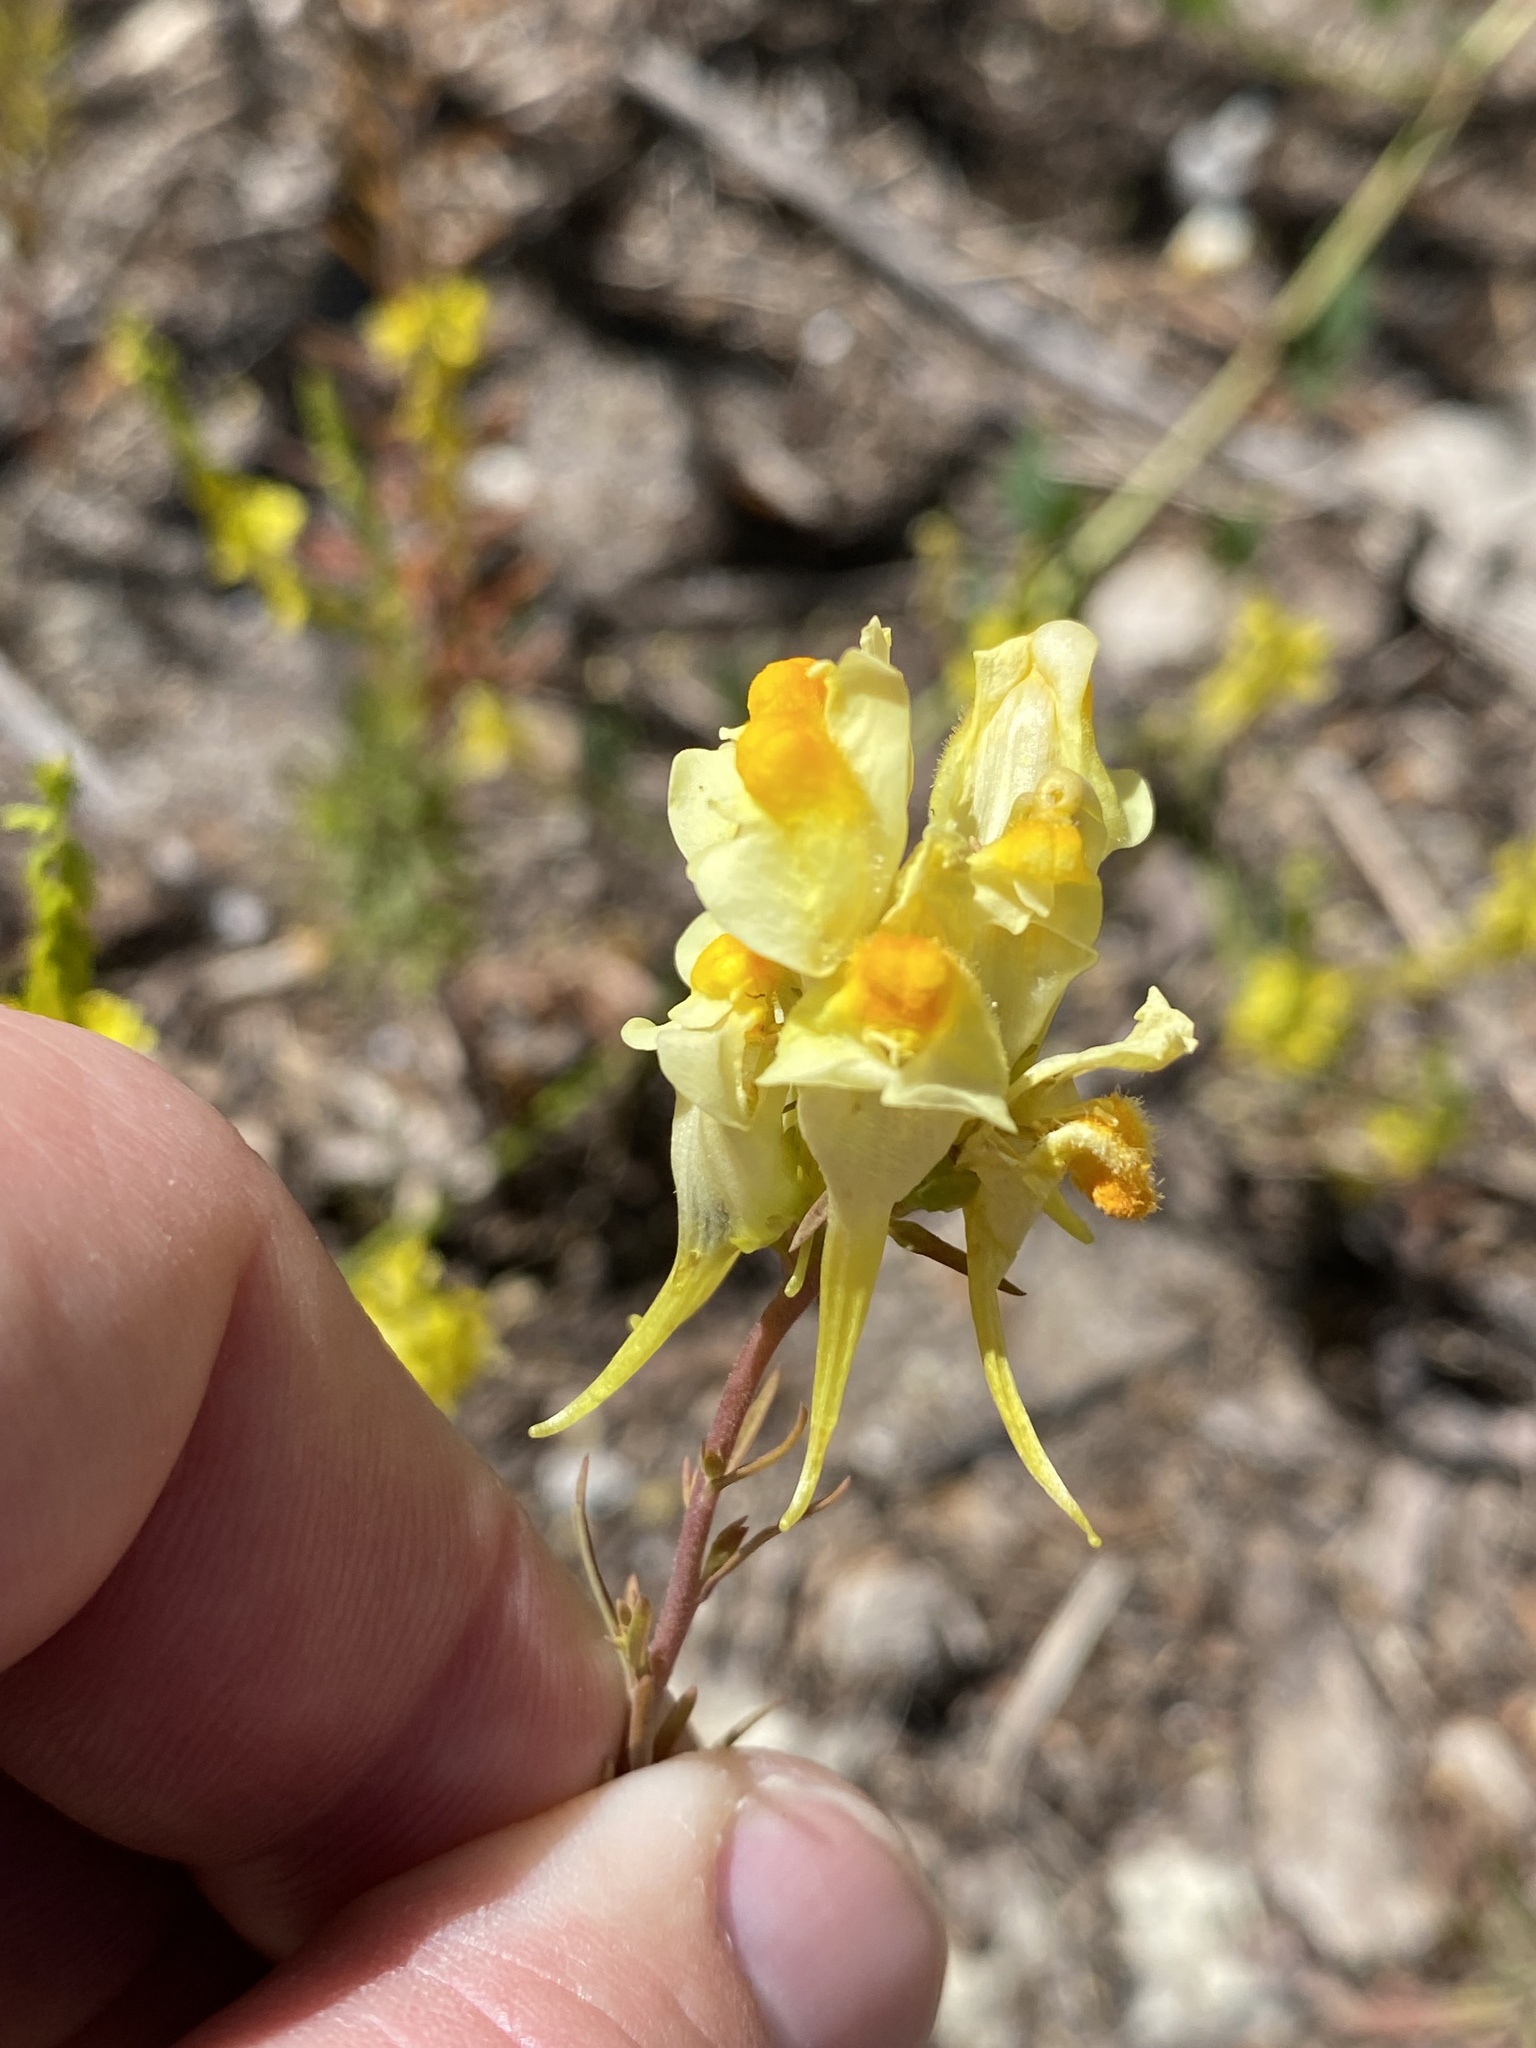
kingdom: Plantae
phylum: Tracheophyta
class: Magnoliopsida
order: Lamiales
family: Plantaginaceae
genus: Linaria
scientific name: Linaria vulgaris
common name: Butter and eggs
